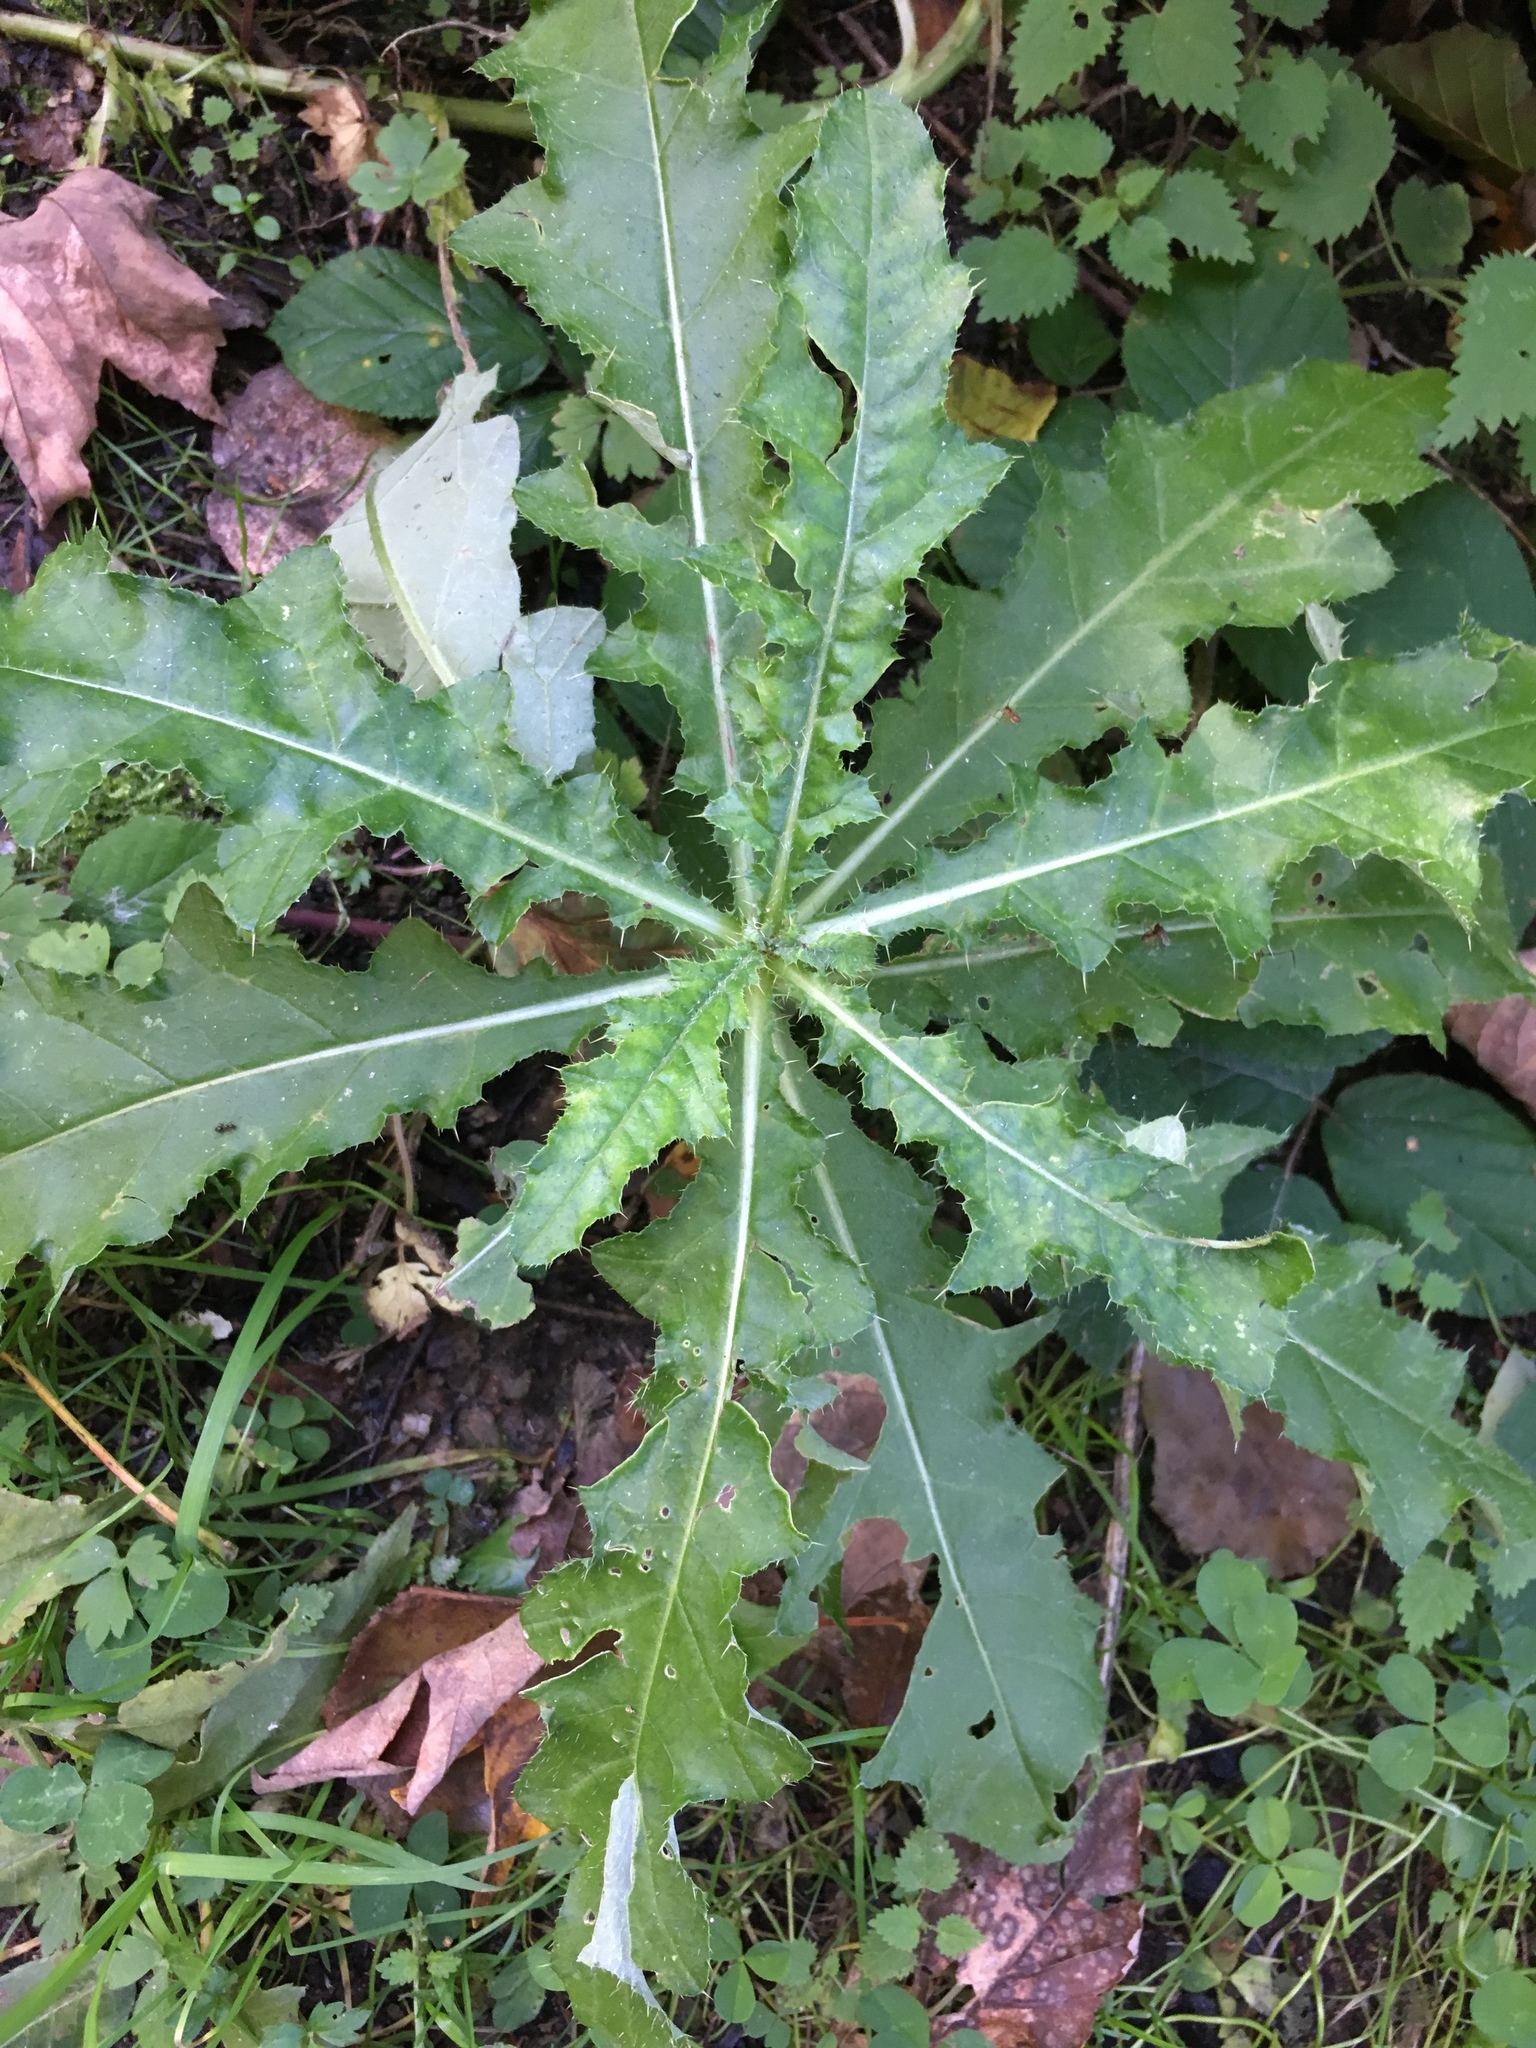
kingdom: Plantae
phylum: Tracheophyta
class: Magnoliopsida
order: Asterales
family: Asteraceae
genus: Cirsium
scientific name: Cirsium arvense
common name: Creeping thistle
